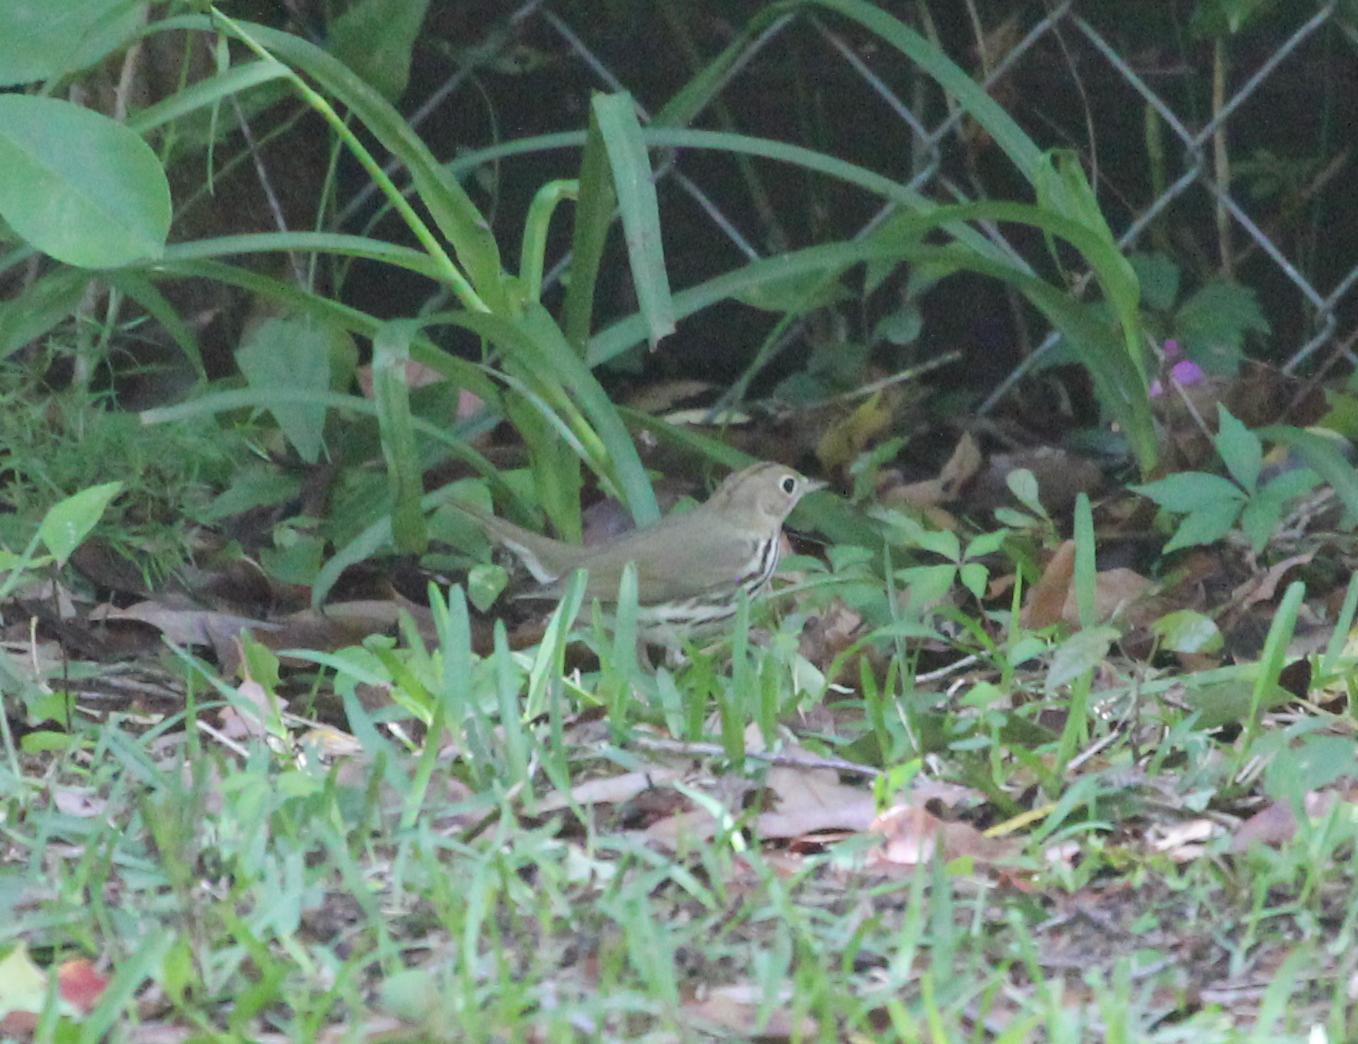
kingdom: Animalia
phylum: Chordata
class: Aves
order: Passeriformes
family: Parulidae
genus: Seiurus
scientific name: Seiurus aurocapilla
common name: Ovenbird
